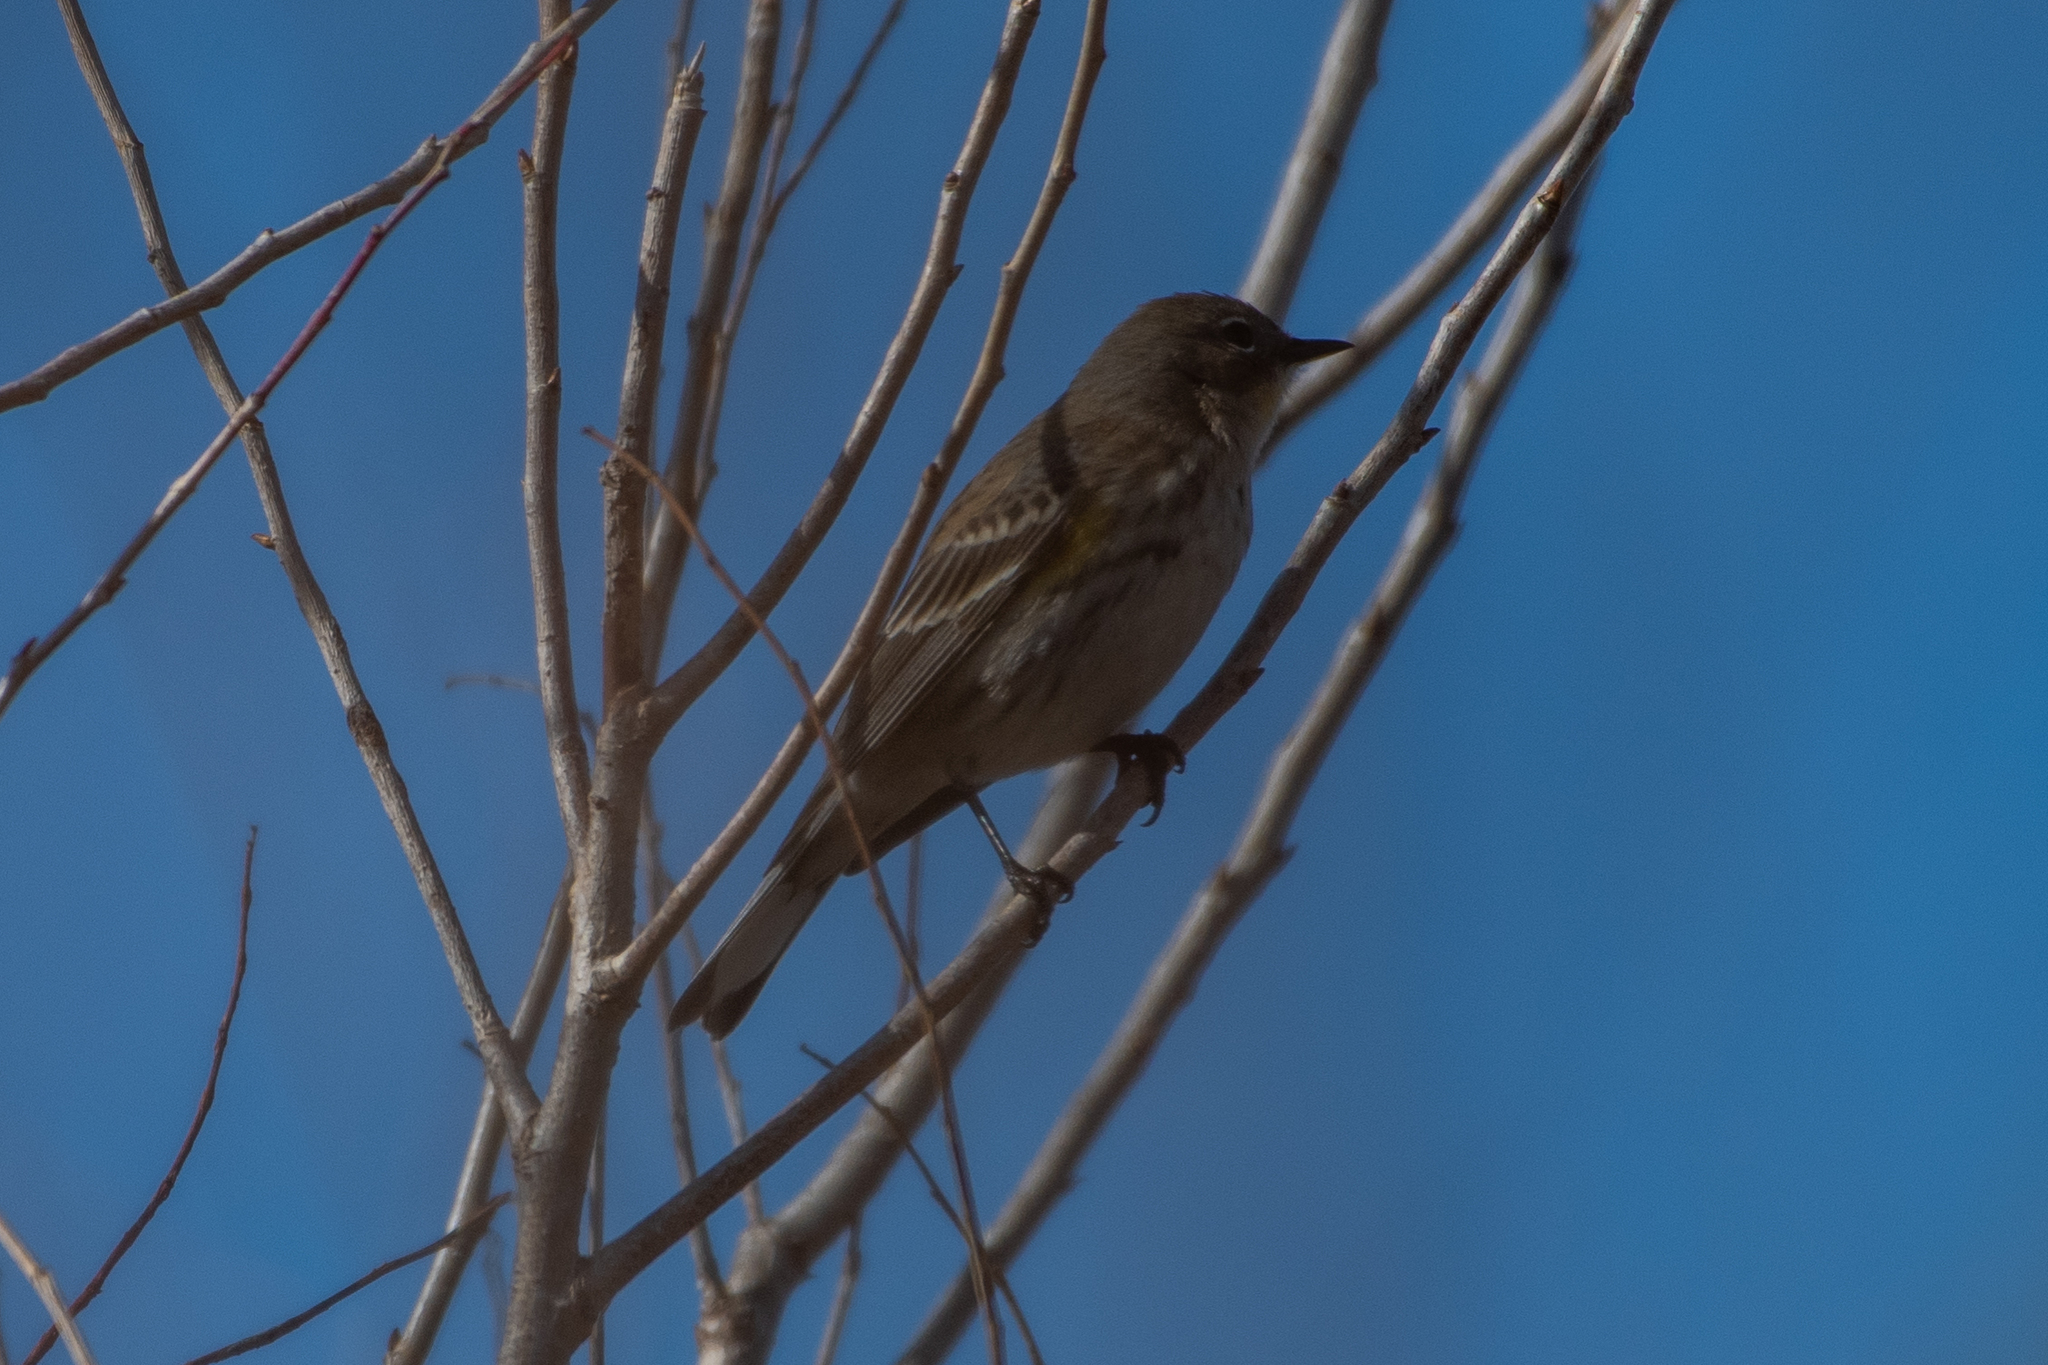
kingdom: Animalia
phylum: Chordata
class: Aves
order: Passeriformes
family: Parulidae
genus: Setophaga
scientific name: Setophaga coronata
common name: Myrtle warbler
